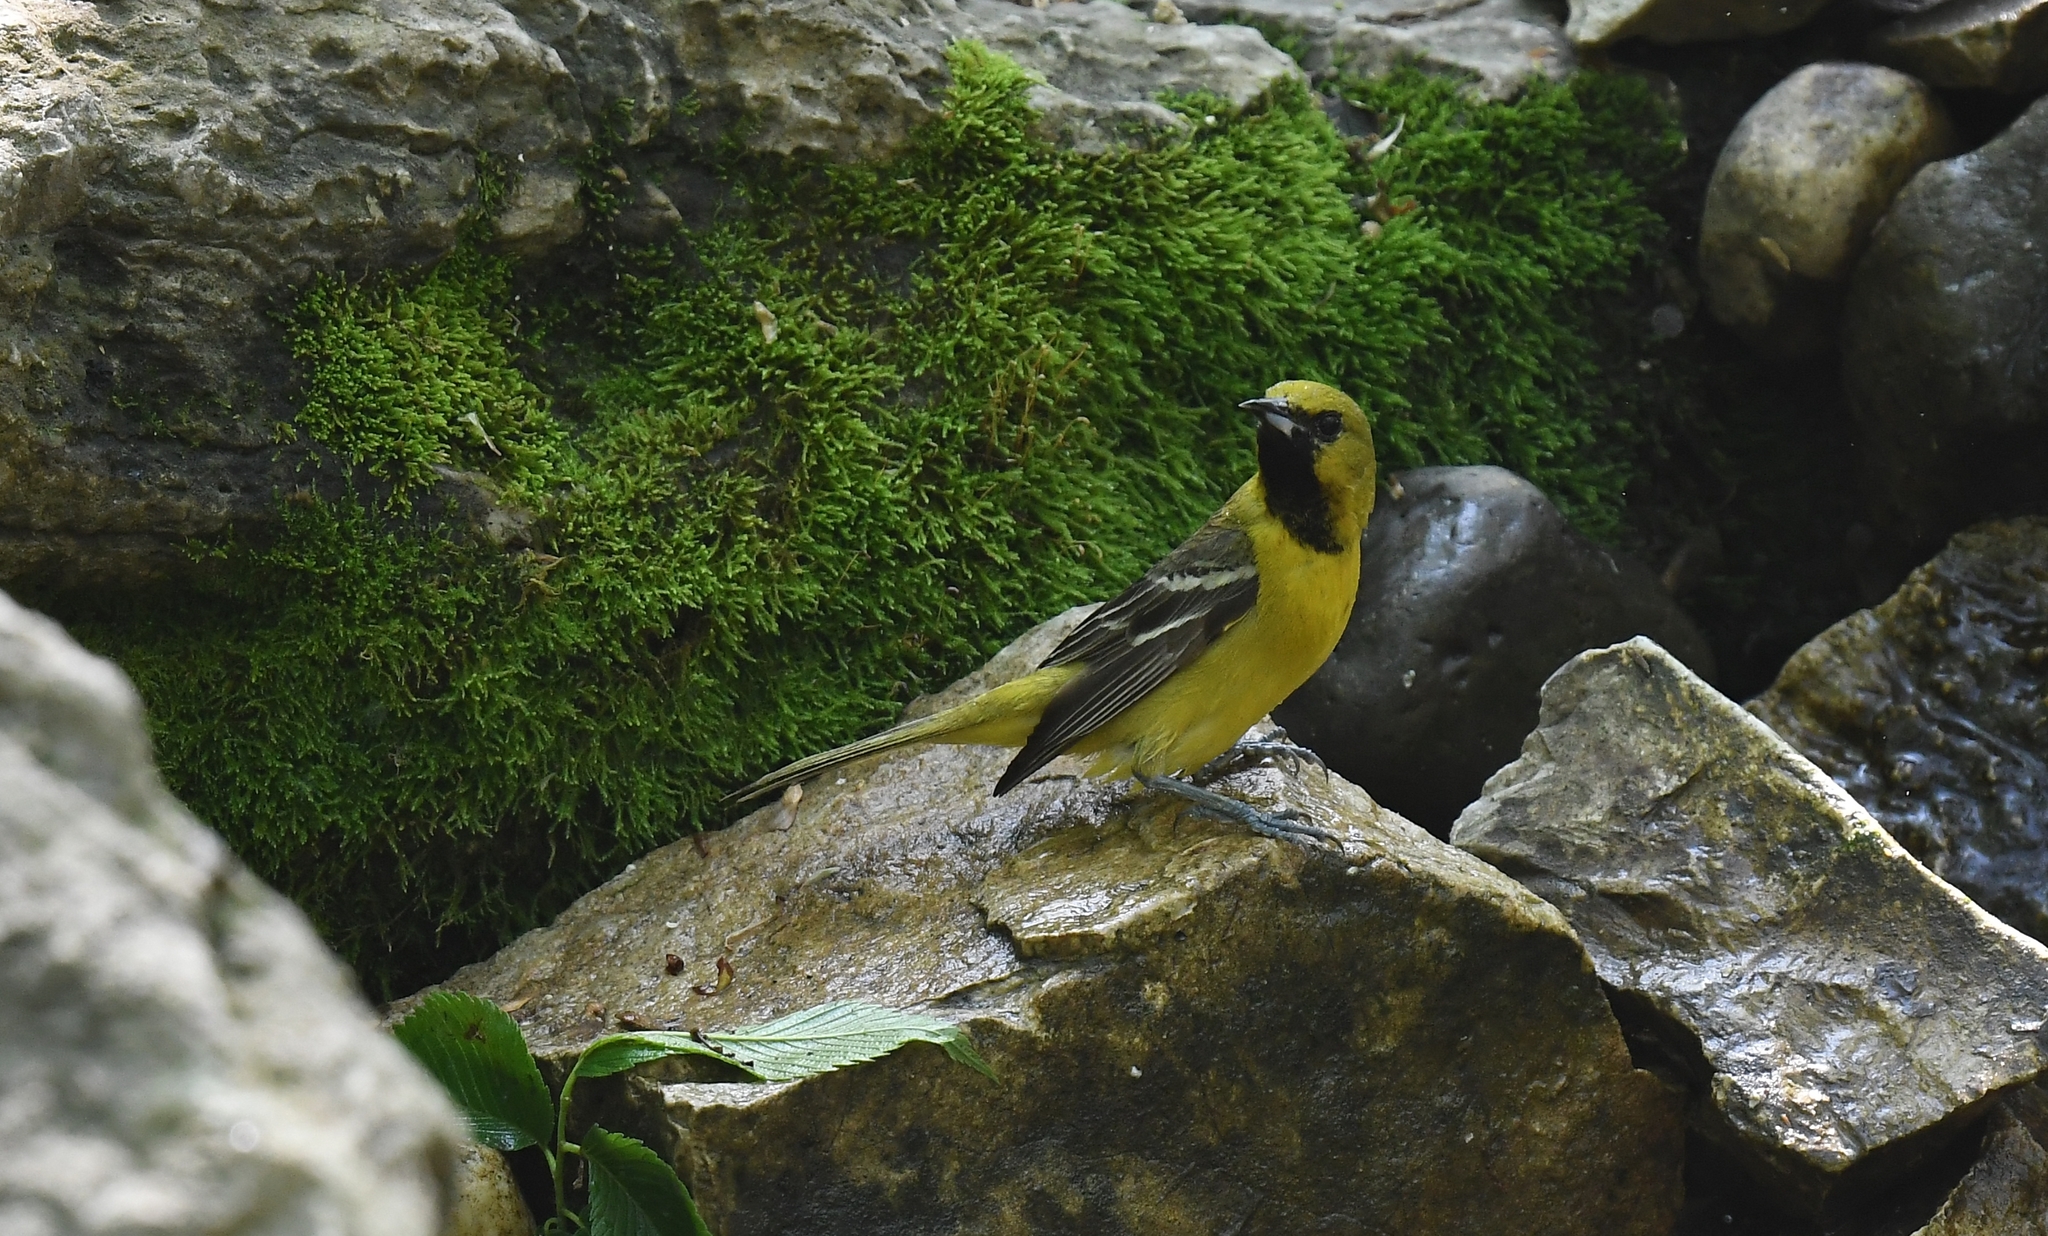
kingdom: Animalia
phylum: Chordata
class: Aves
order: Passeriformes
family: Icteridae
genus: Icterus
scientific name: Icterus spurius
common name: Orchard oriole
